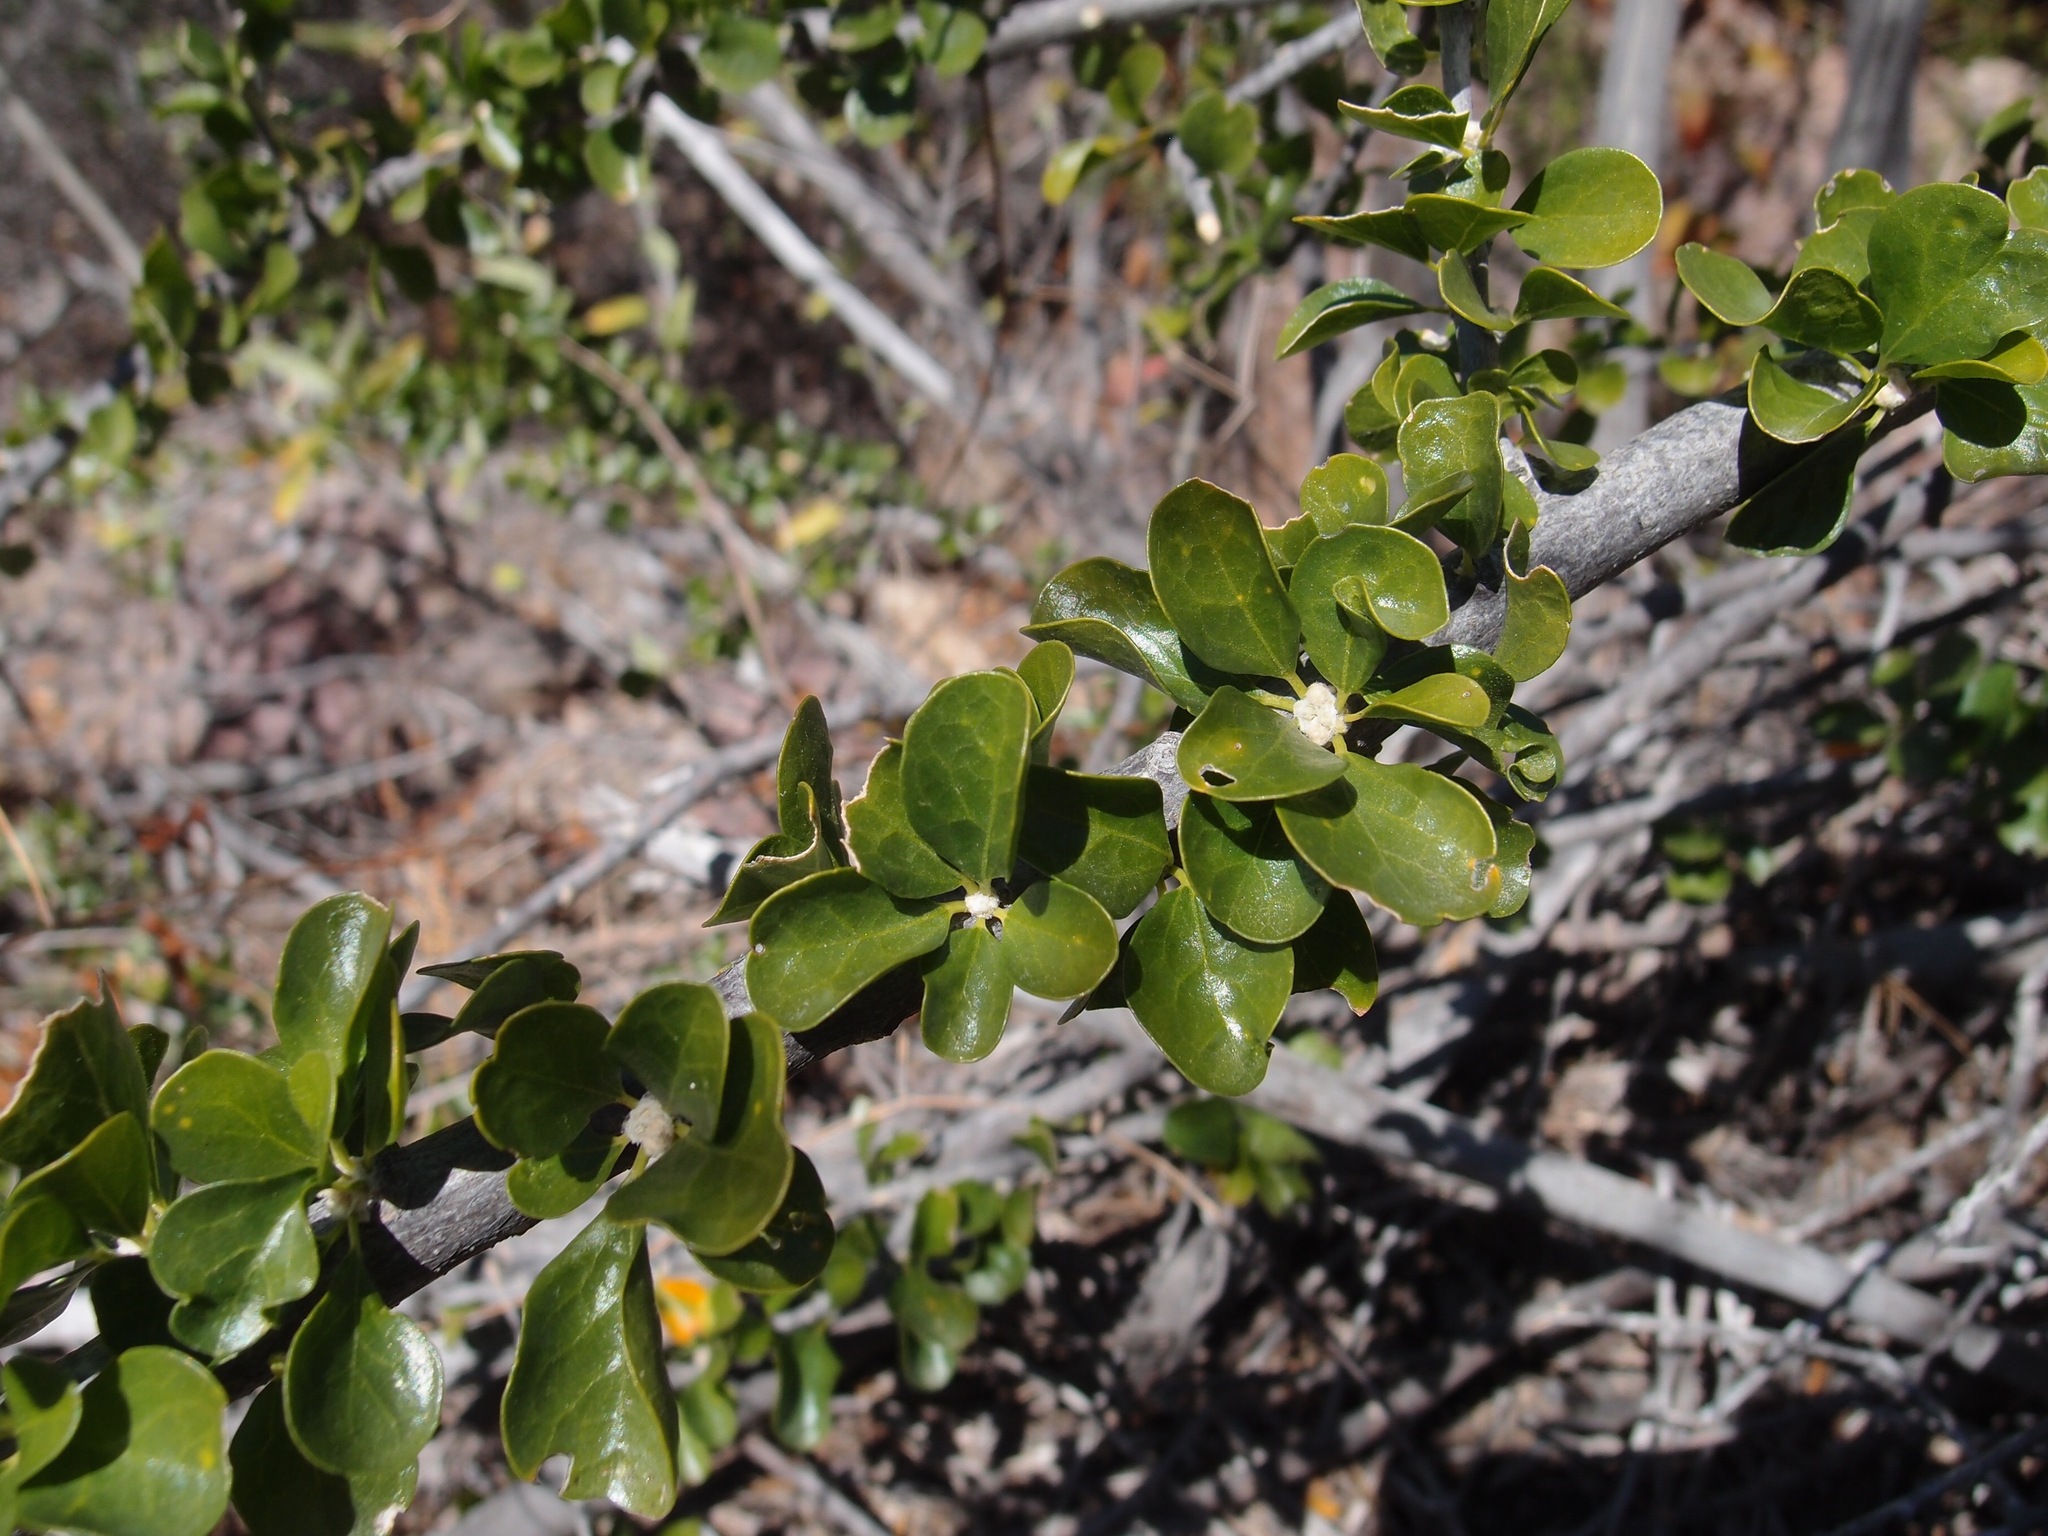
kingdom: Plantae
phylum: Tracheophyta
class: Magnoliopsida
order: Malpighiales
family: Euphorbiaceae
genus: Adelia
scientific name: Adelia obovata
